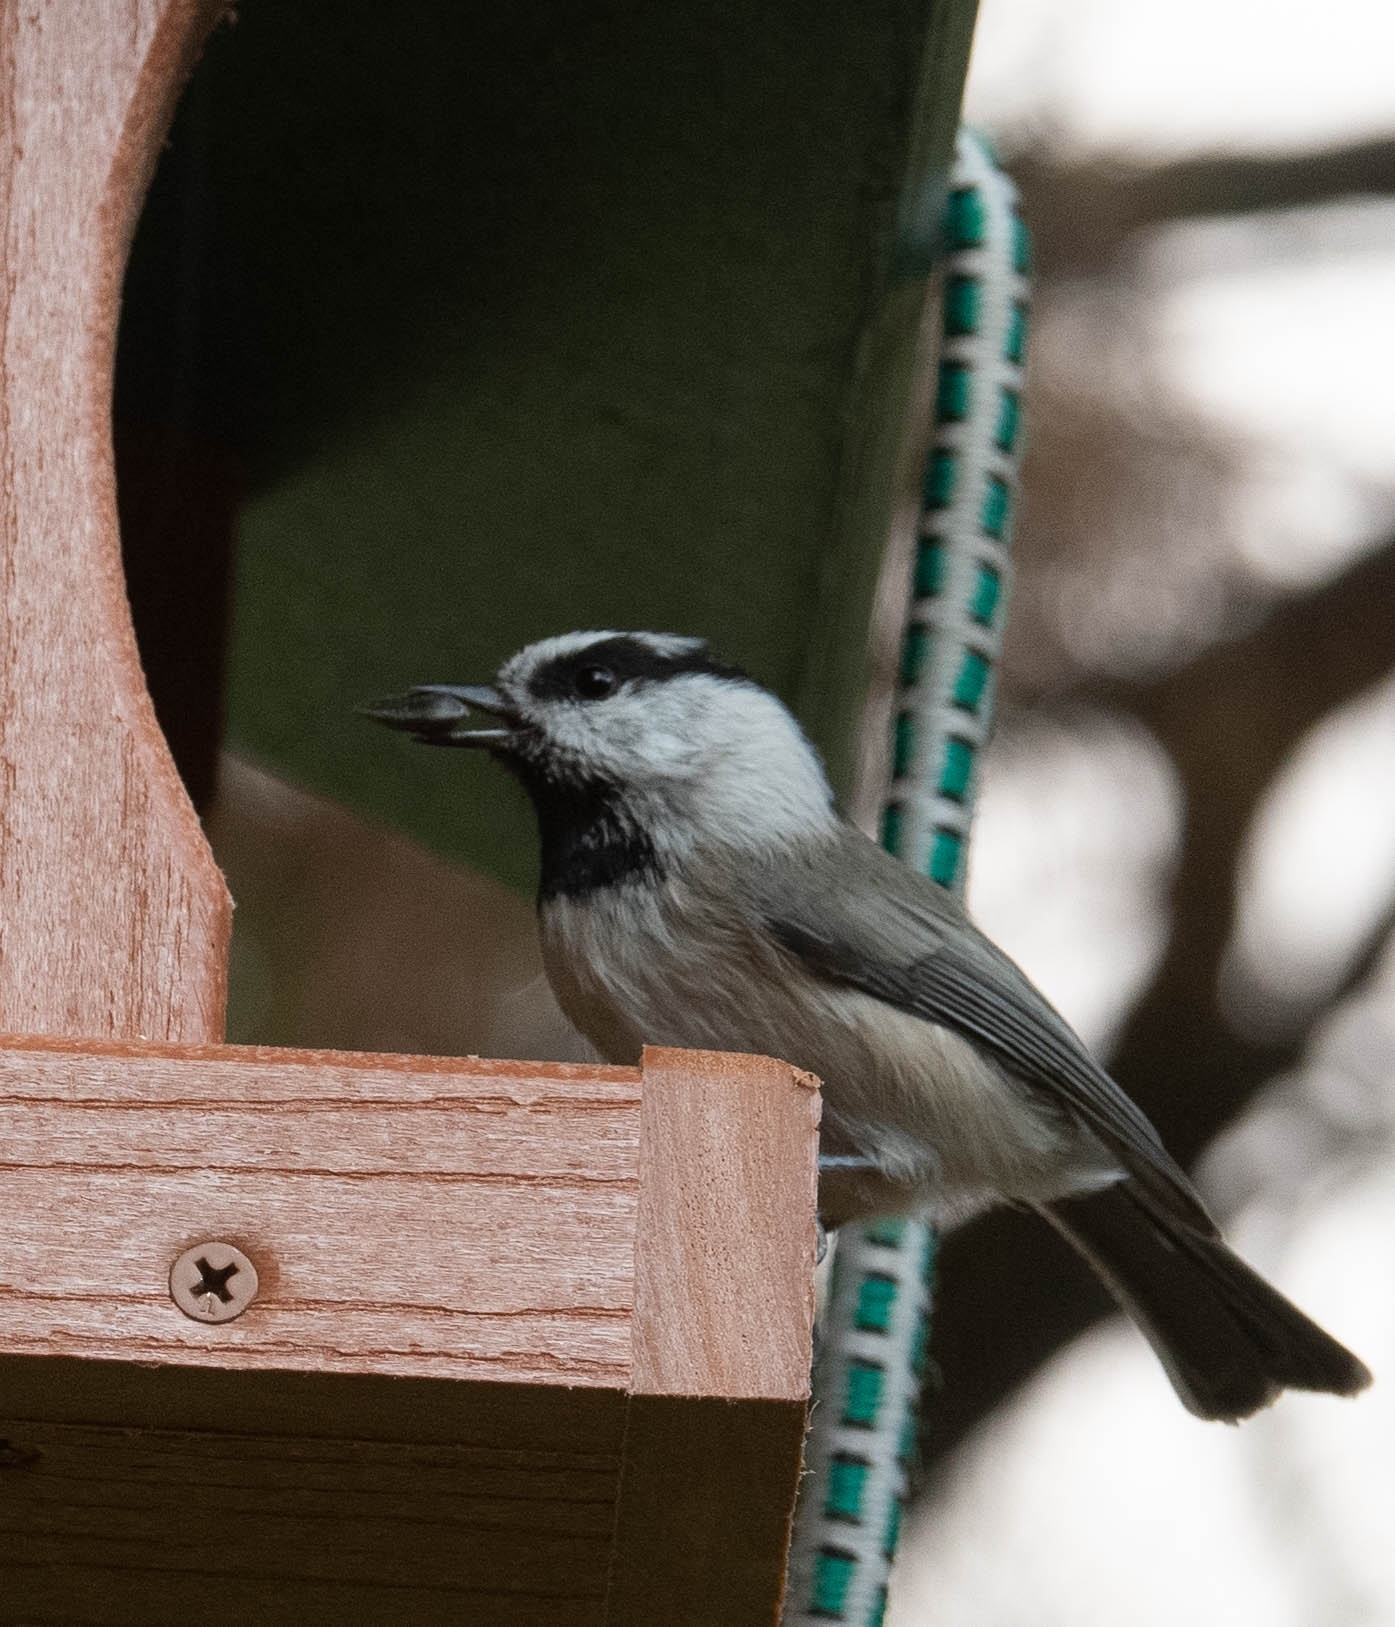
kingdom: Animalia
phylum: Chordata
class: Aves
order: Passeriformes
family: Paridae
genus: Poecile
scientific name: Poecile gambeli
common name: Mountain chickadee
